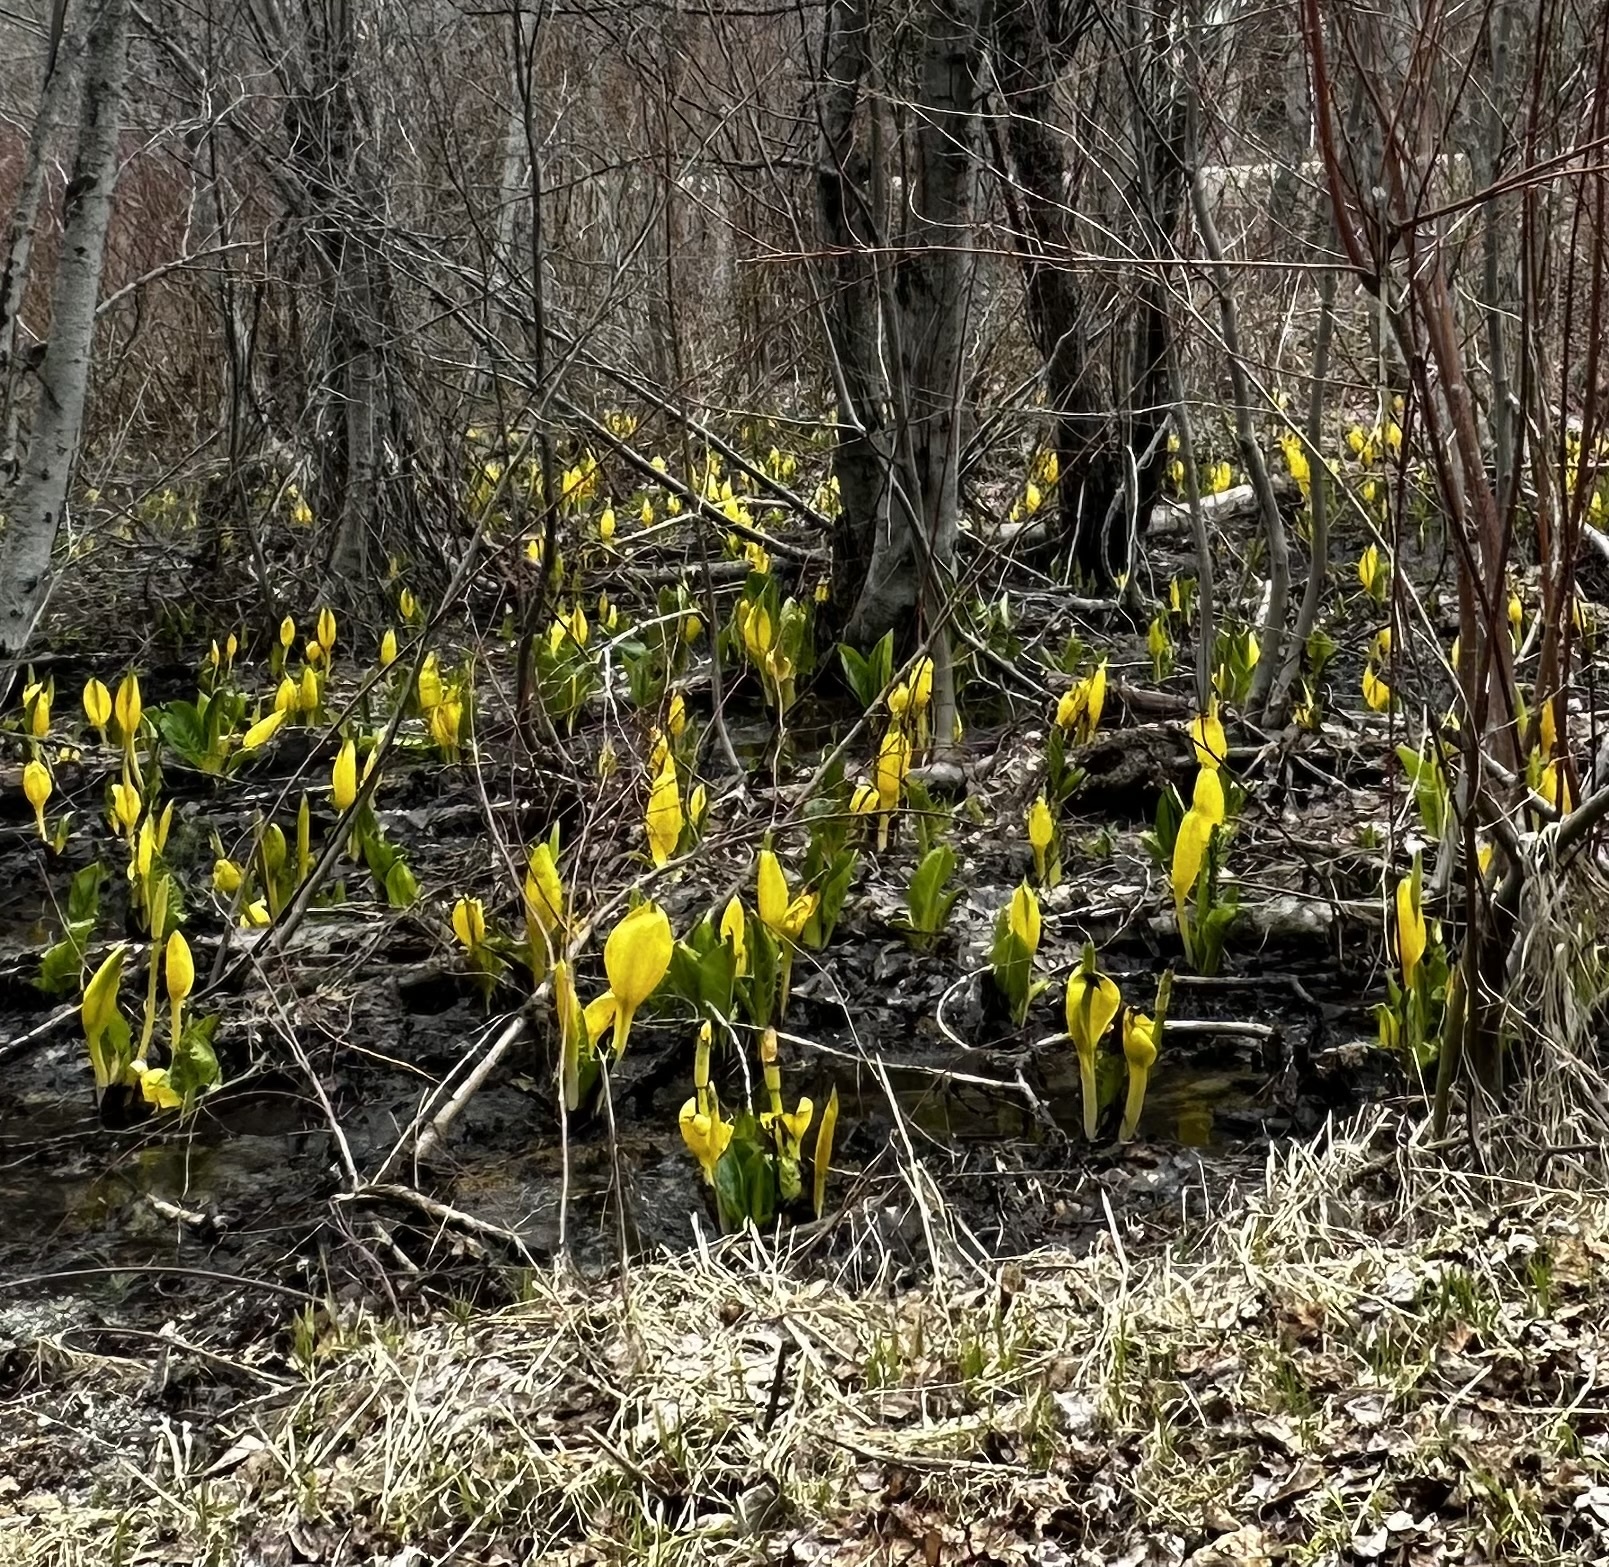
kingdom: Plantae
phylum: Tracheophyta
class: Liliopsida
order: Alismatales
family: Araceae
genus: Lysichiton
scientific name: Lysichiton americanus
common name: American skunk cabbage
